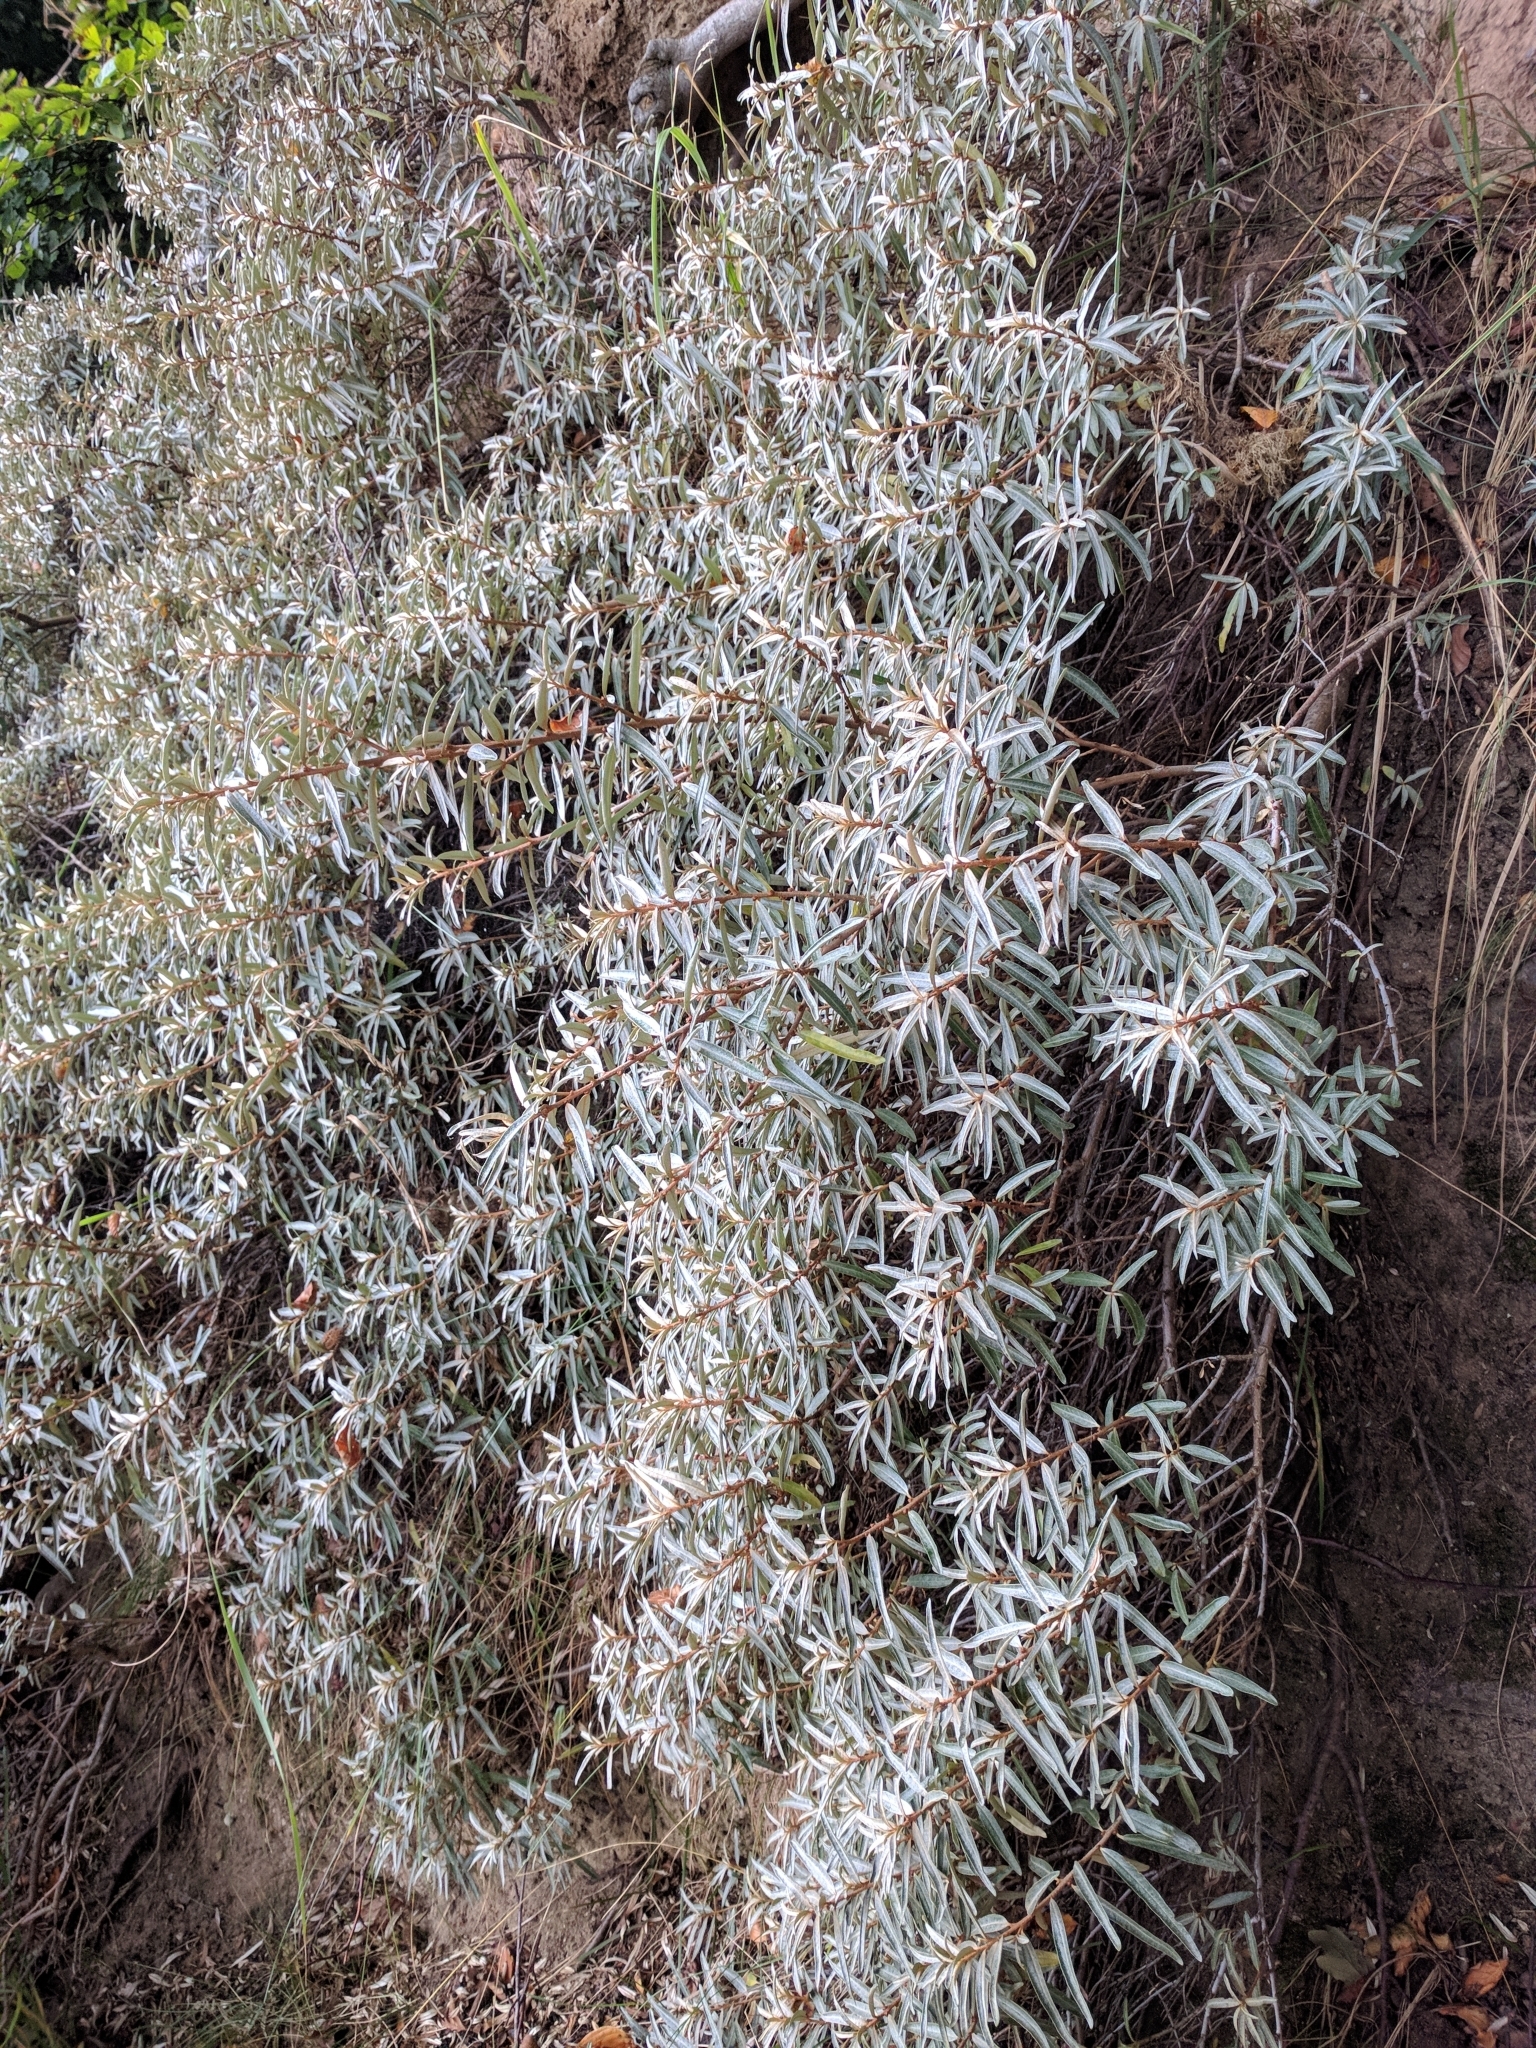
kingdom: Plantae
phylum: Tracheophyta
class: Magnoliopsida
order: Rosales
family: Elaeagnaceae
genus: Hippophae
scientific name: Hippophae rhamnoides
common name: Sea-buckthorn
